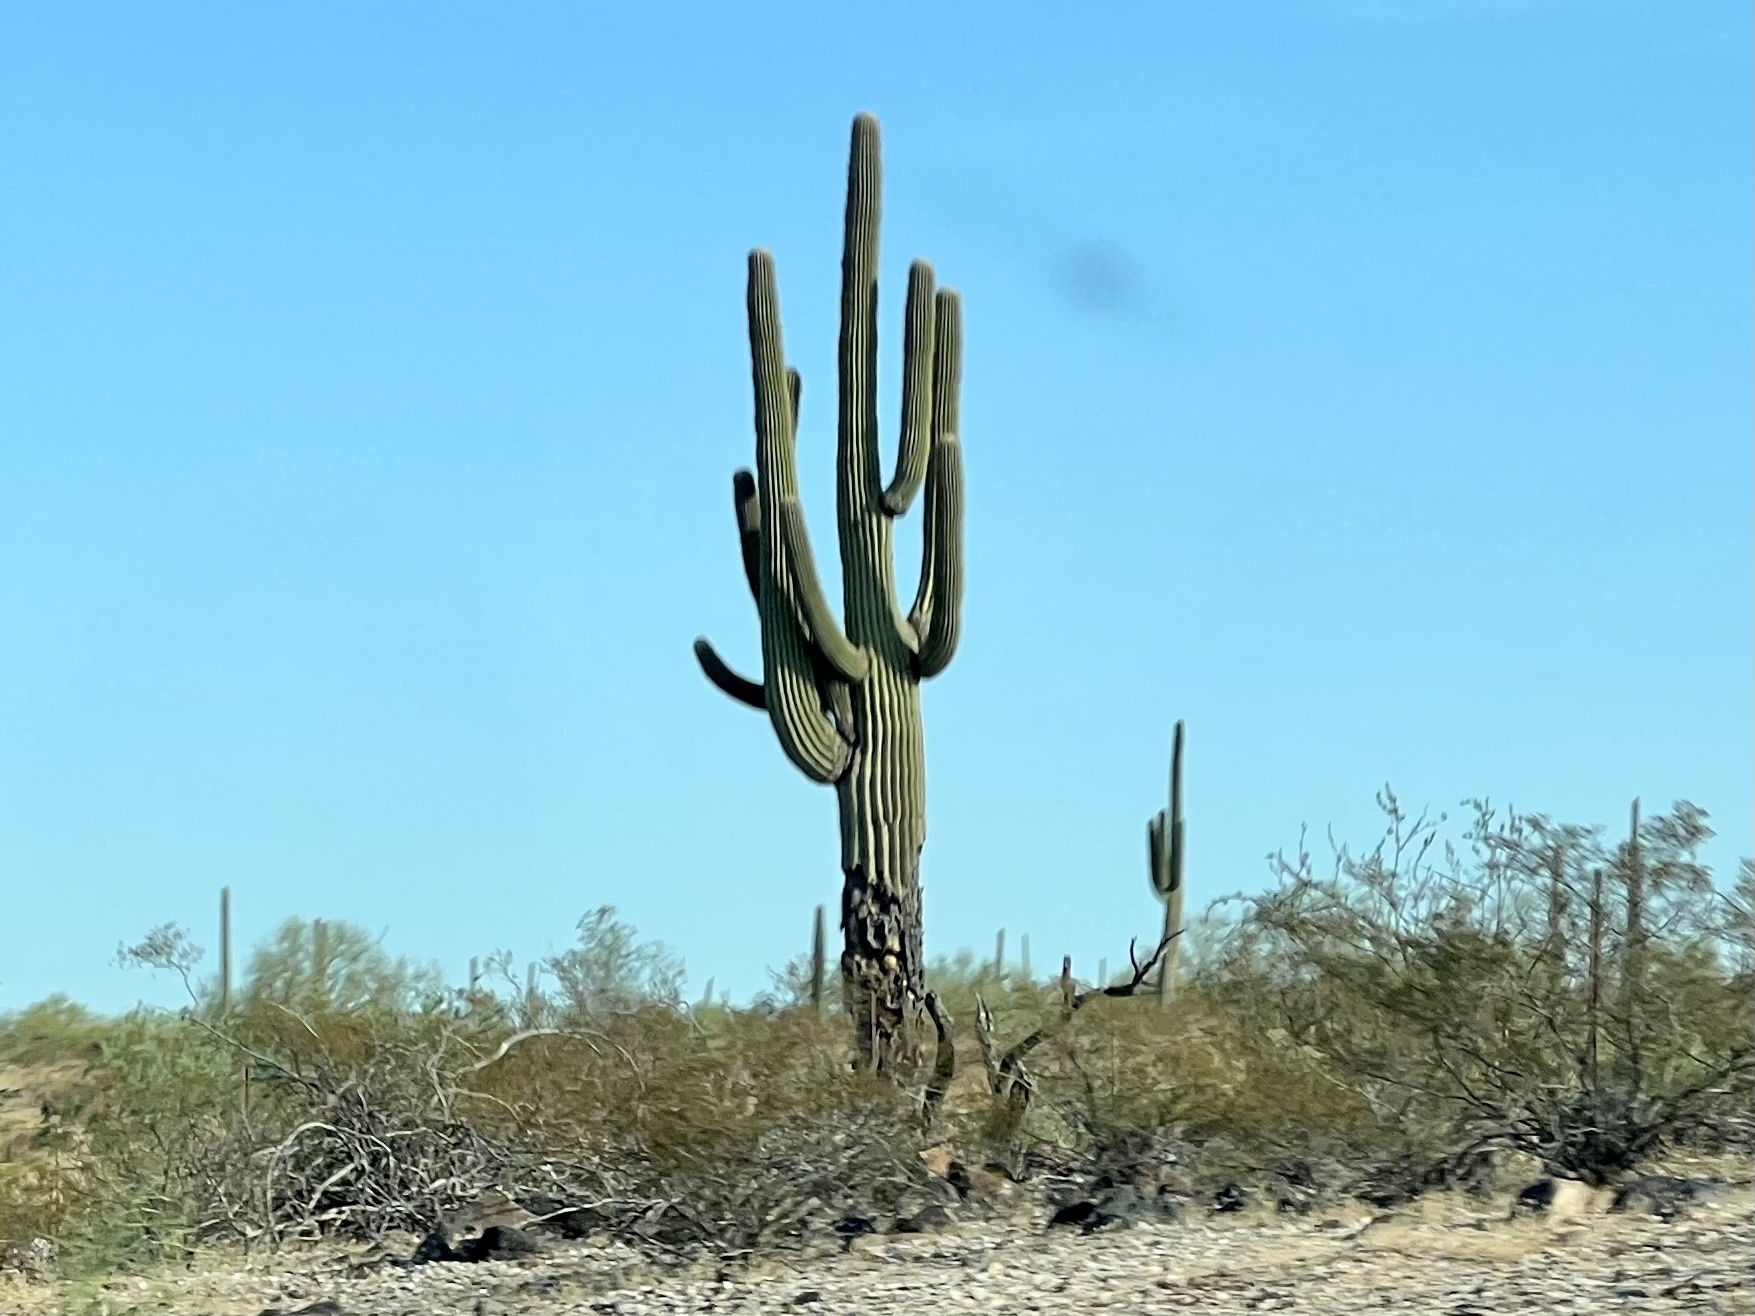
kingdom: Plantae
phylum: Tracheophyta
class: Magnoliopsida
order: Caryophyllales
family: Cactaceae
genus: Carnegiea
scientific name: Carnegiea gigantea
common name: Saguaro
